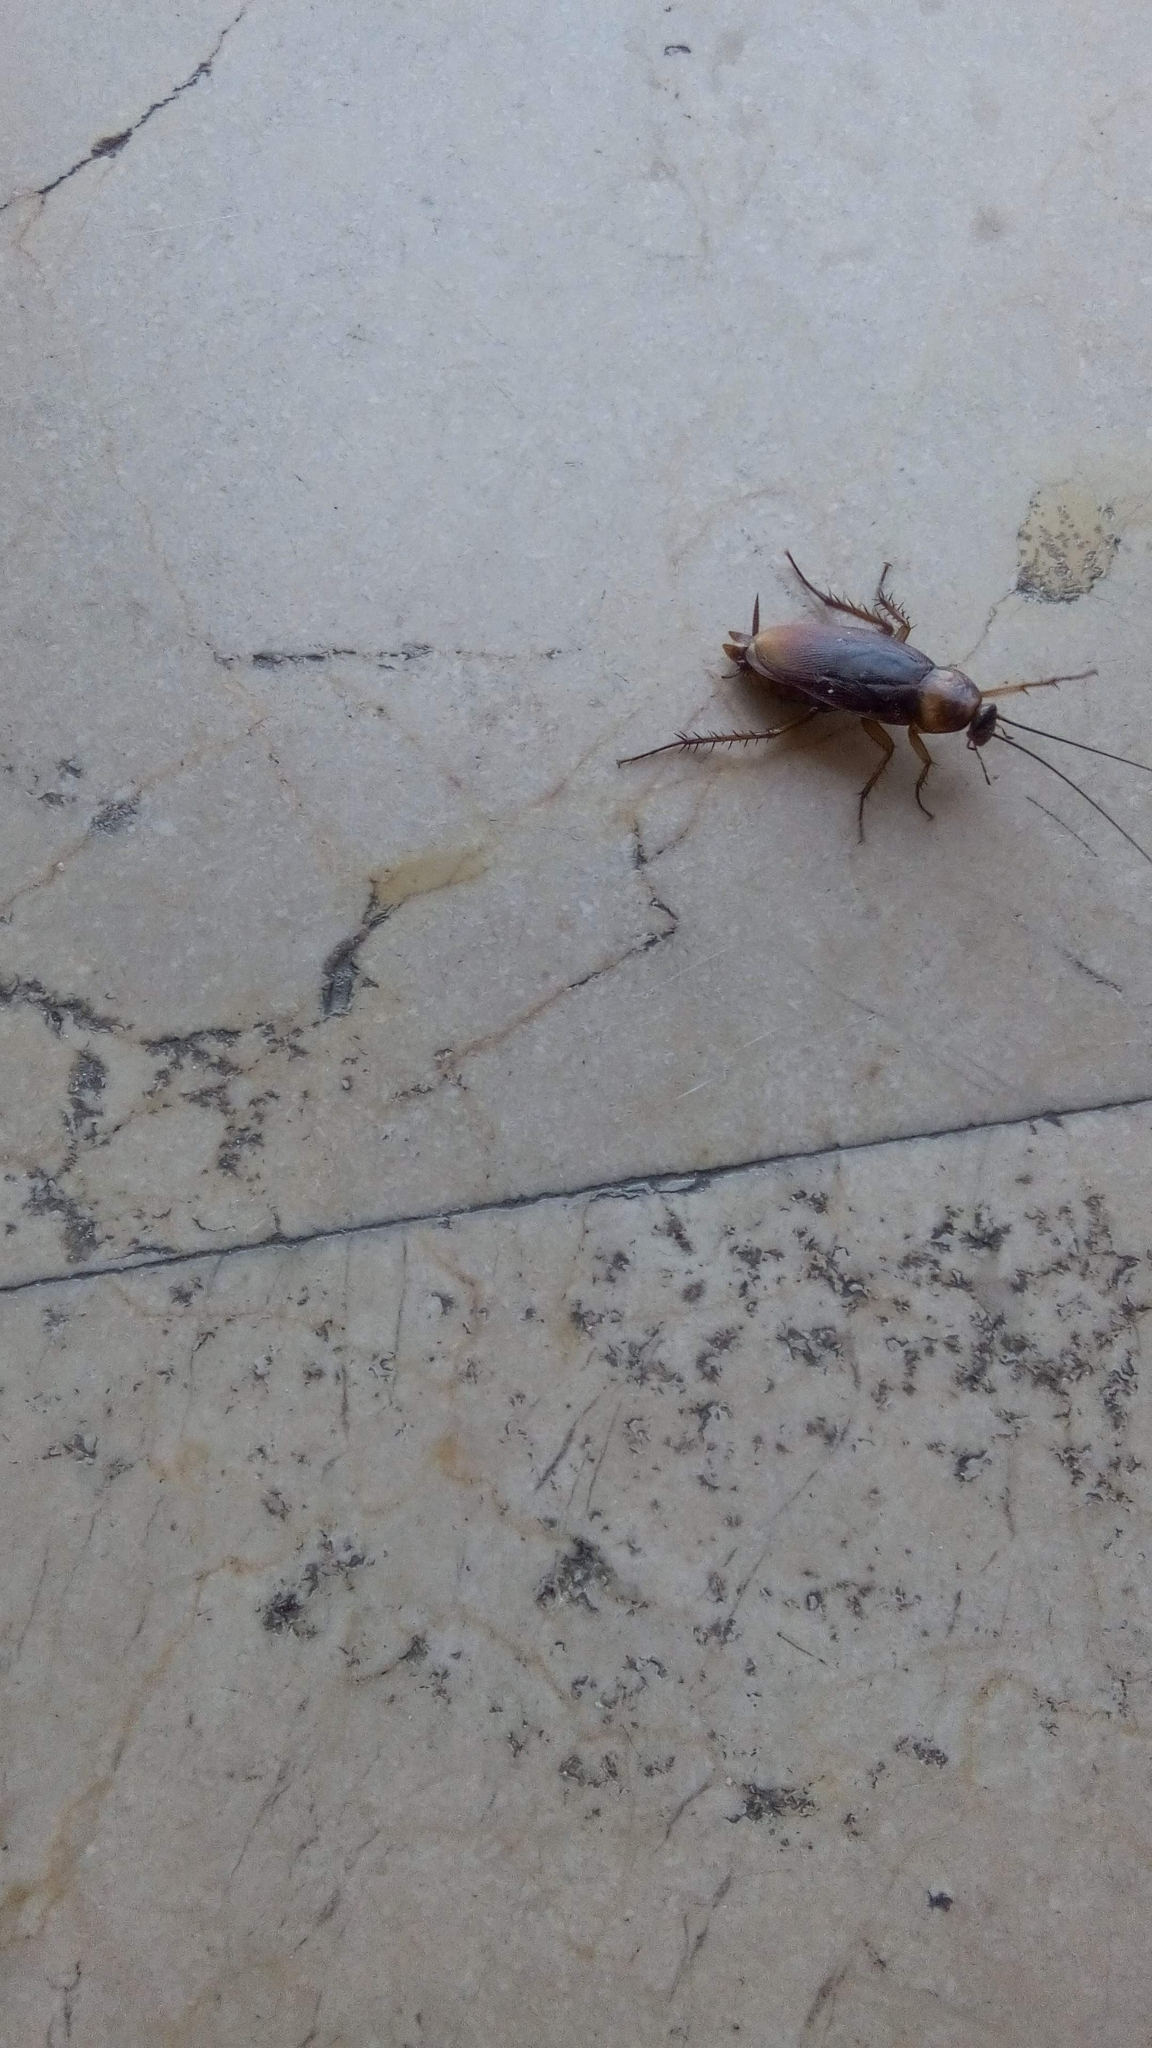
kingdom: Animalia
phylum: Arthropoda
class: Insecta
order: Blattodea
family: Blattidae
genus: Periplaneta
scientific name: Periplaneta americana
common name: American cockroach
